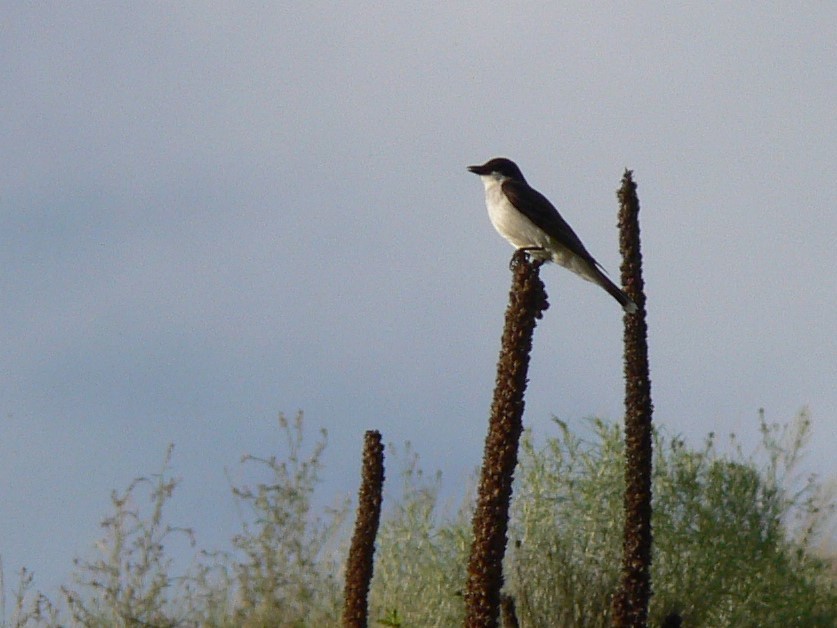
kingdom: Animalia
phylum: Chordata
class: Aves
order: Passeriformes
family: Tyrannidae
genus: Tyrannus
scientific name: Tyrannus tyrannus
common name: Eastern kingbird
